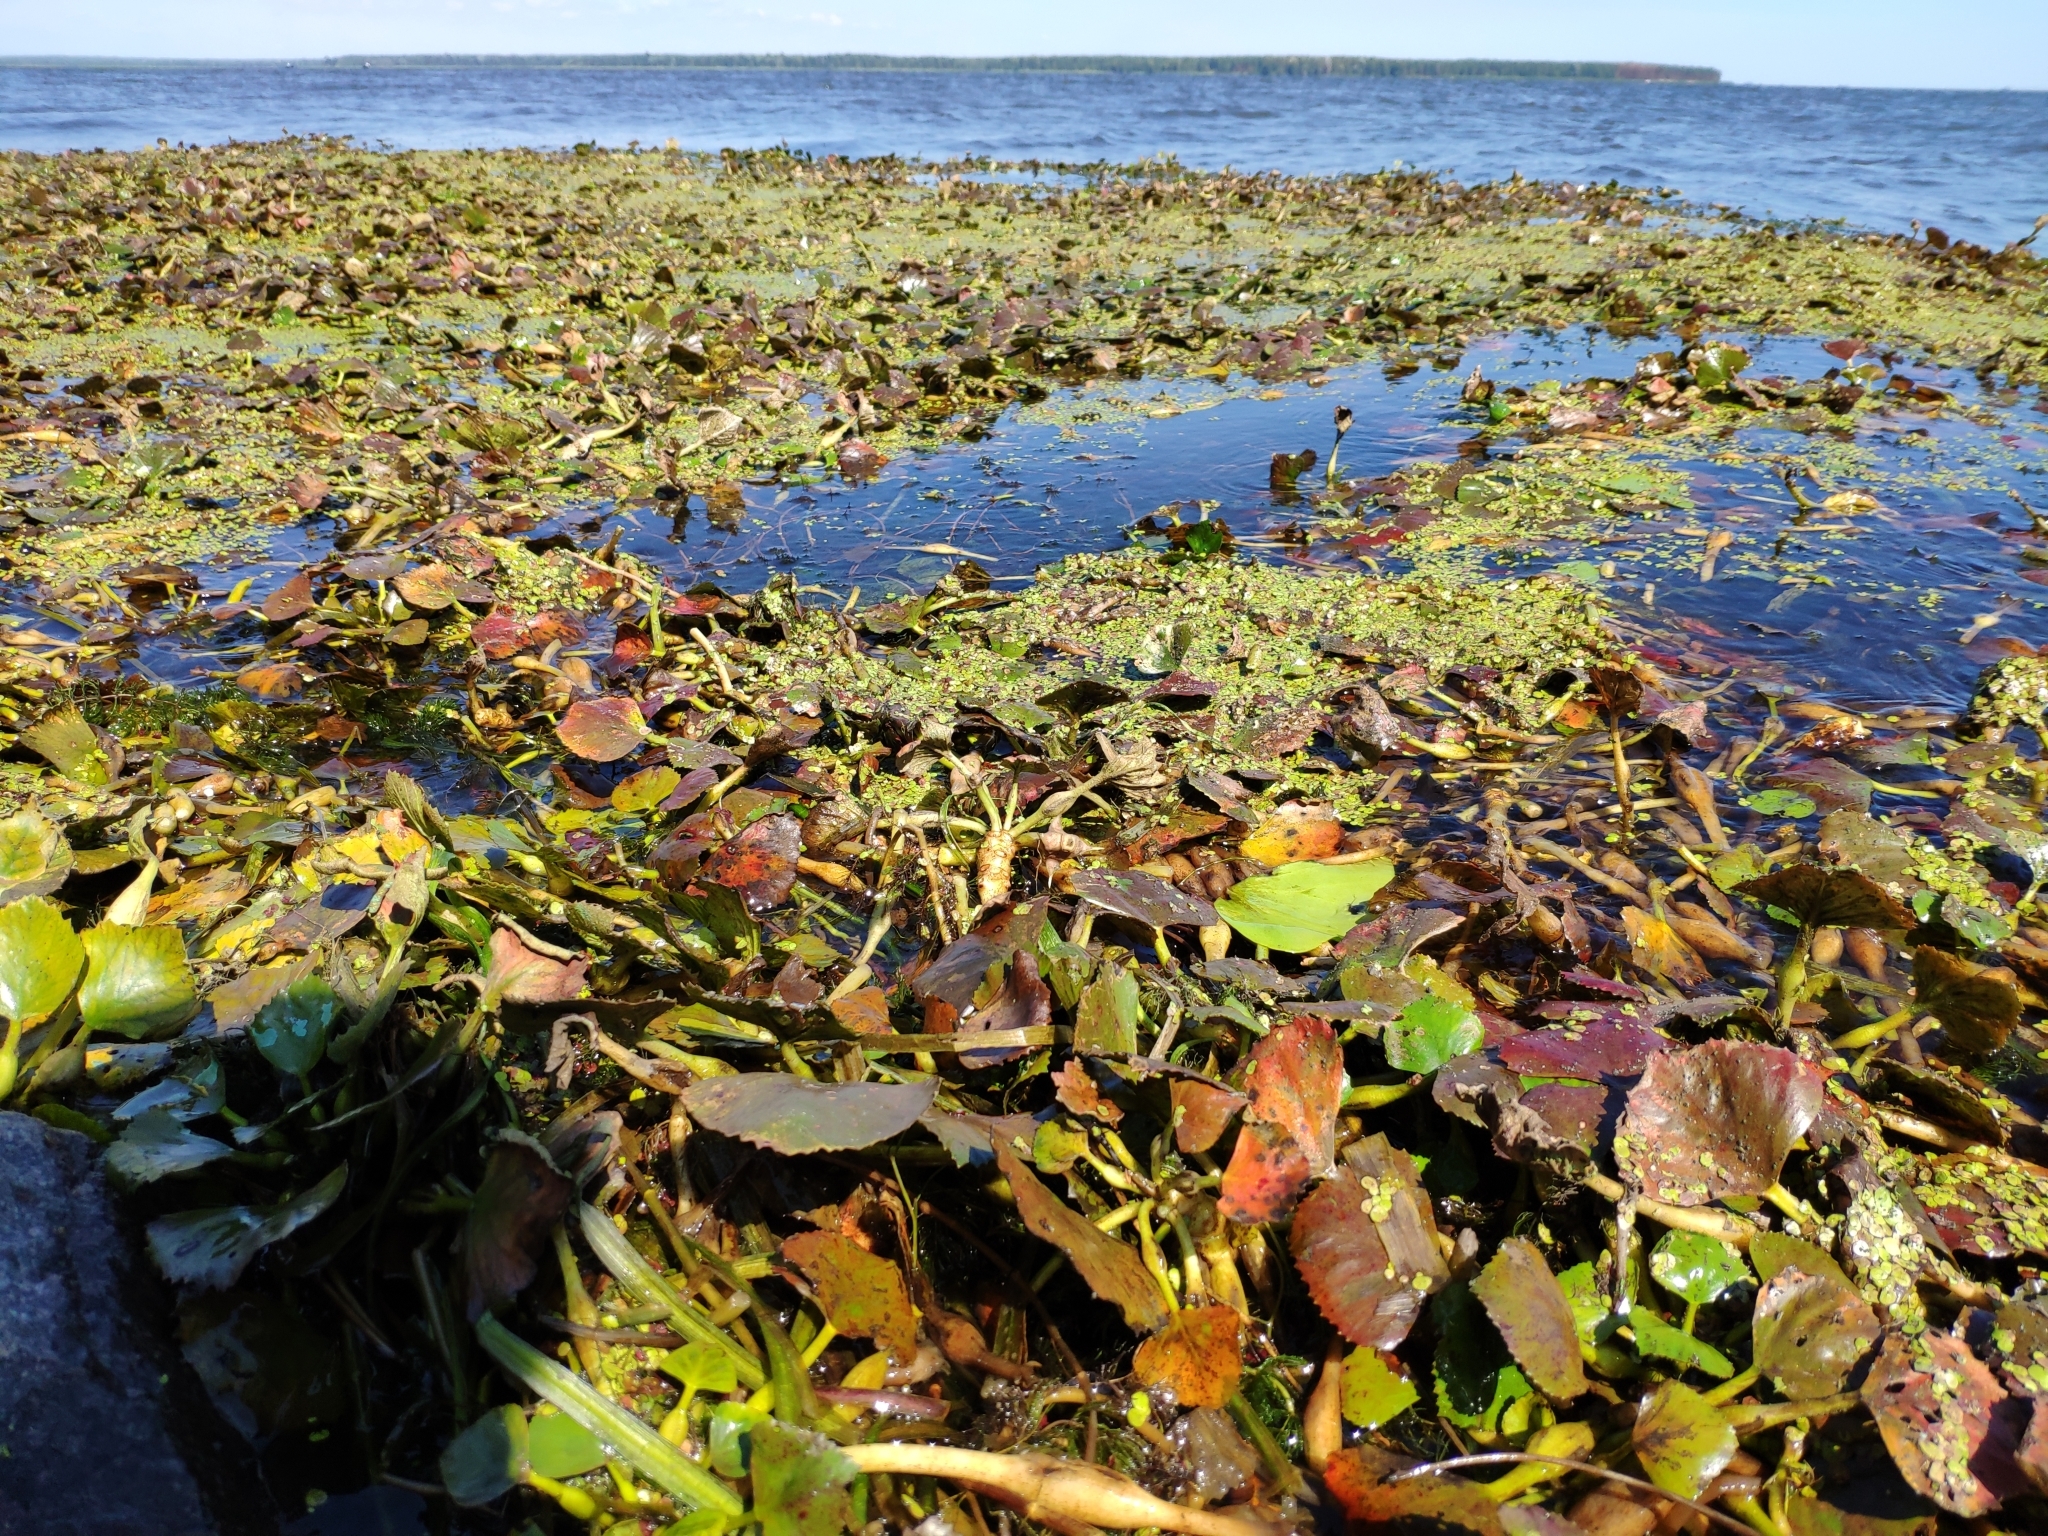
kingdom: Plantae
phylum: Tracheophyta
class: Magnoliopsida
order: Myrtales
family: Lythraceae
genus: Trapa
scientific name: Trapa natans
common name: Water chestnut
